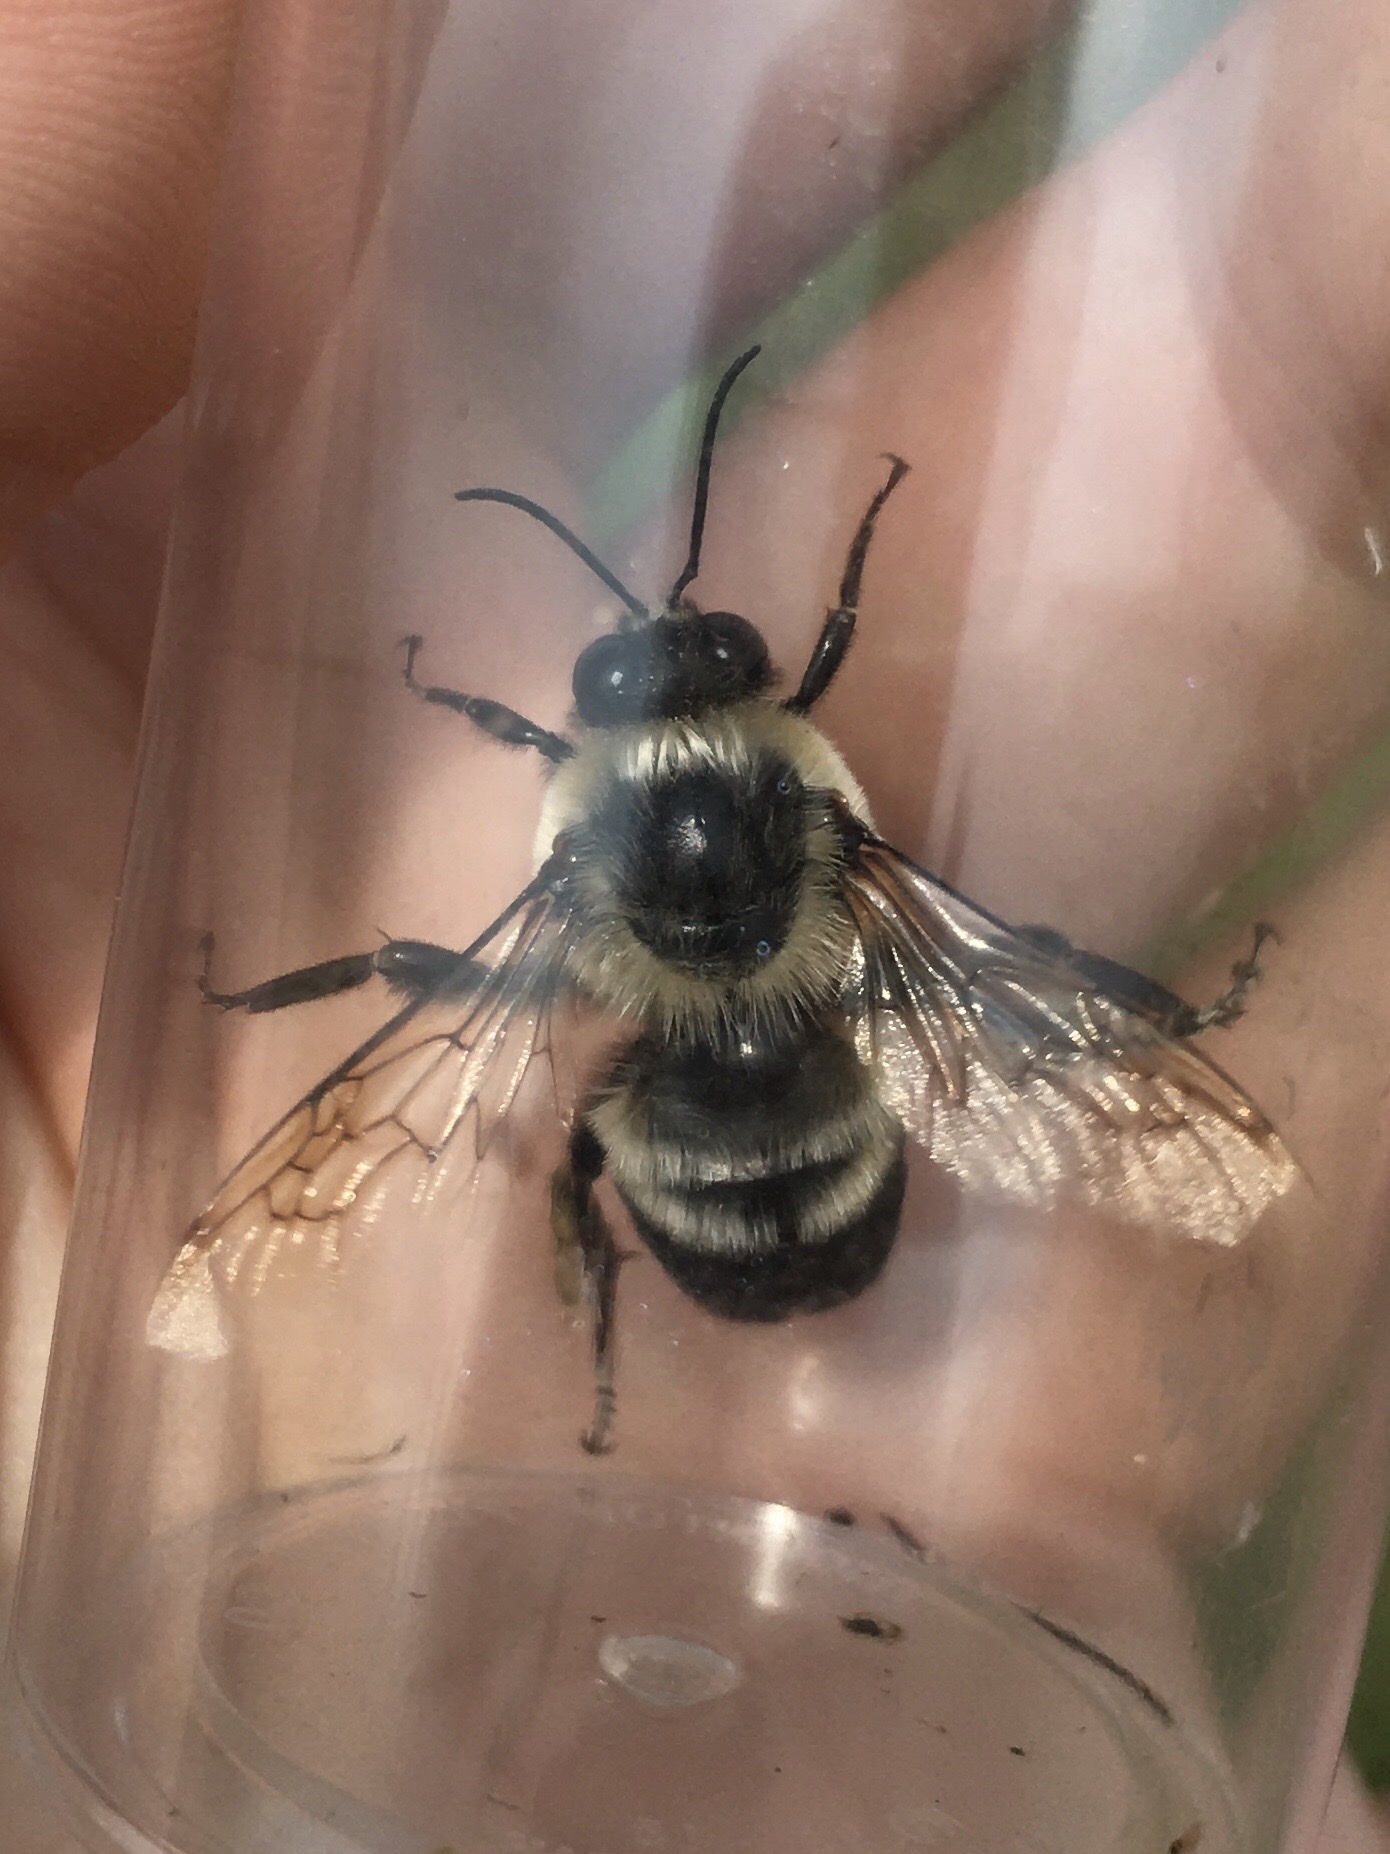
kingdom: Animalia
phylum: Arthropoda
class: Insecta
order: Hymenoptera
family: Apidae
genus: Bombus
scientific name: Bombus griseocollis
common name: Brown-belted bumble bee
